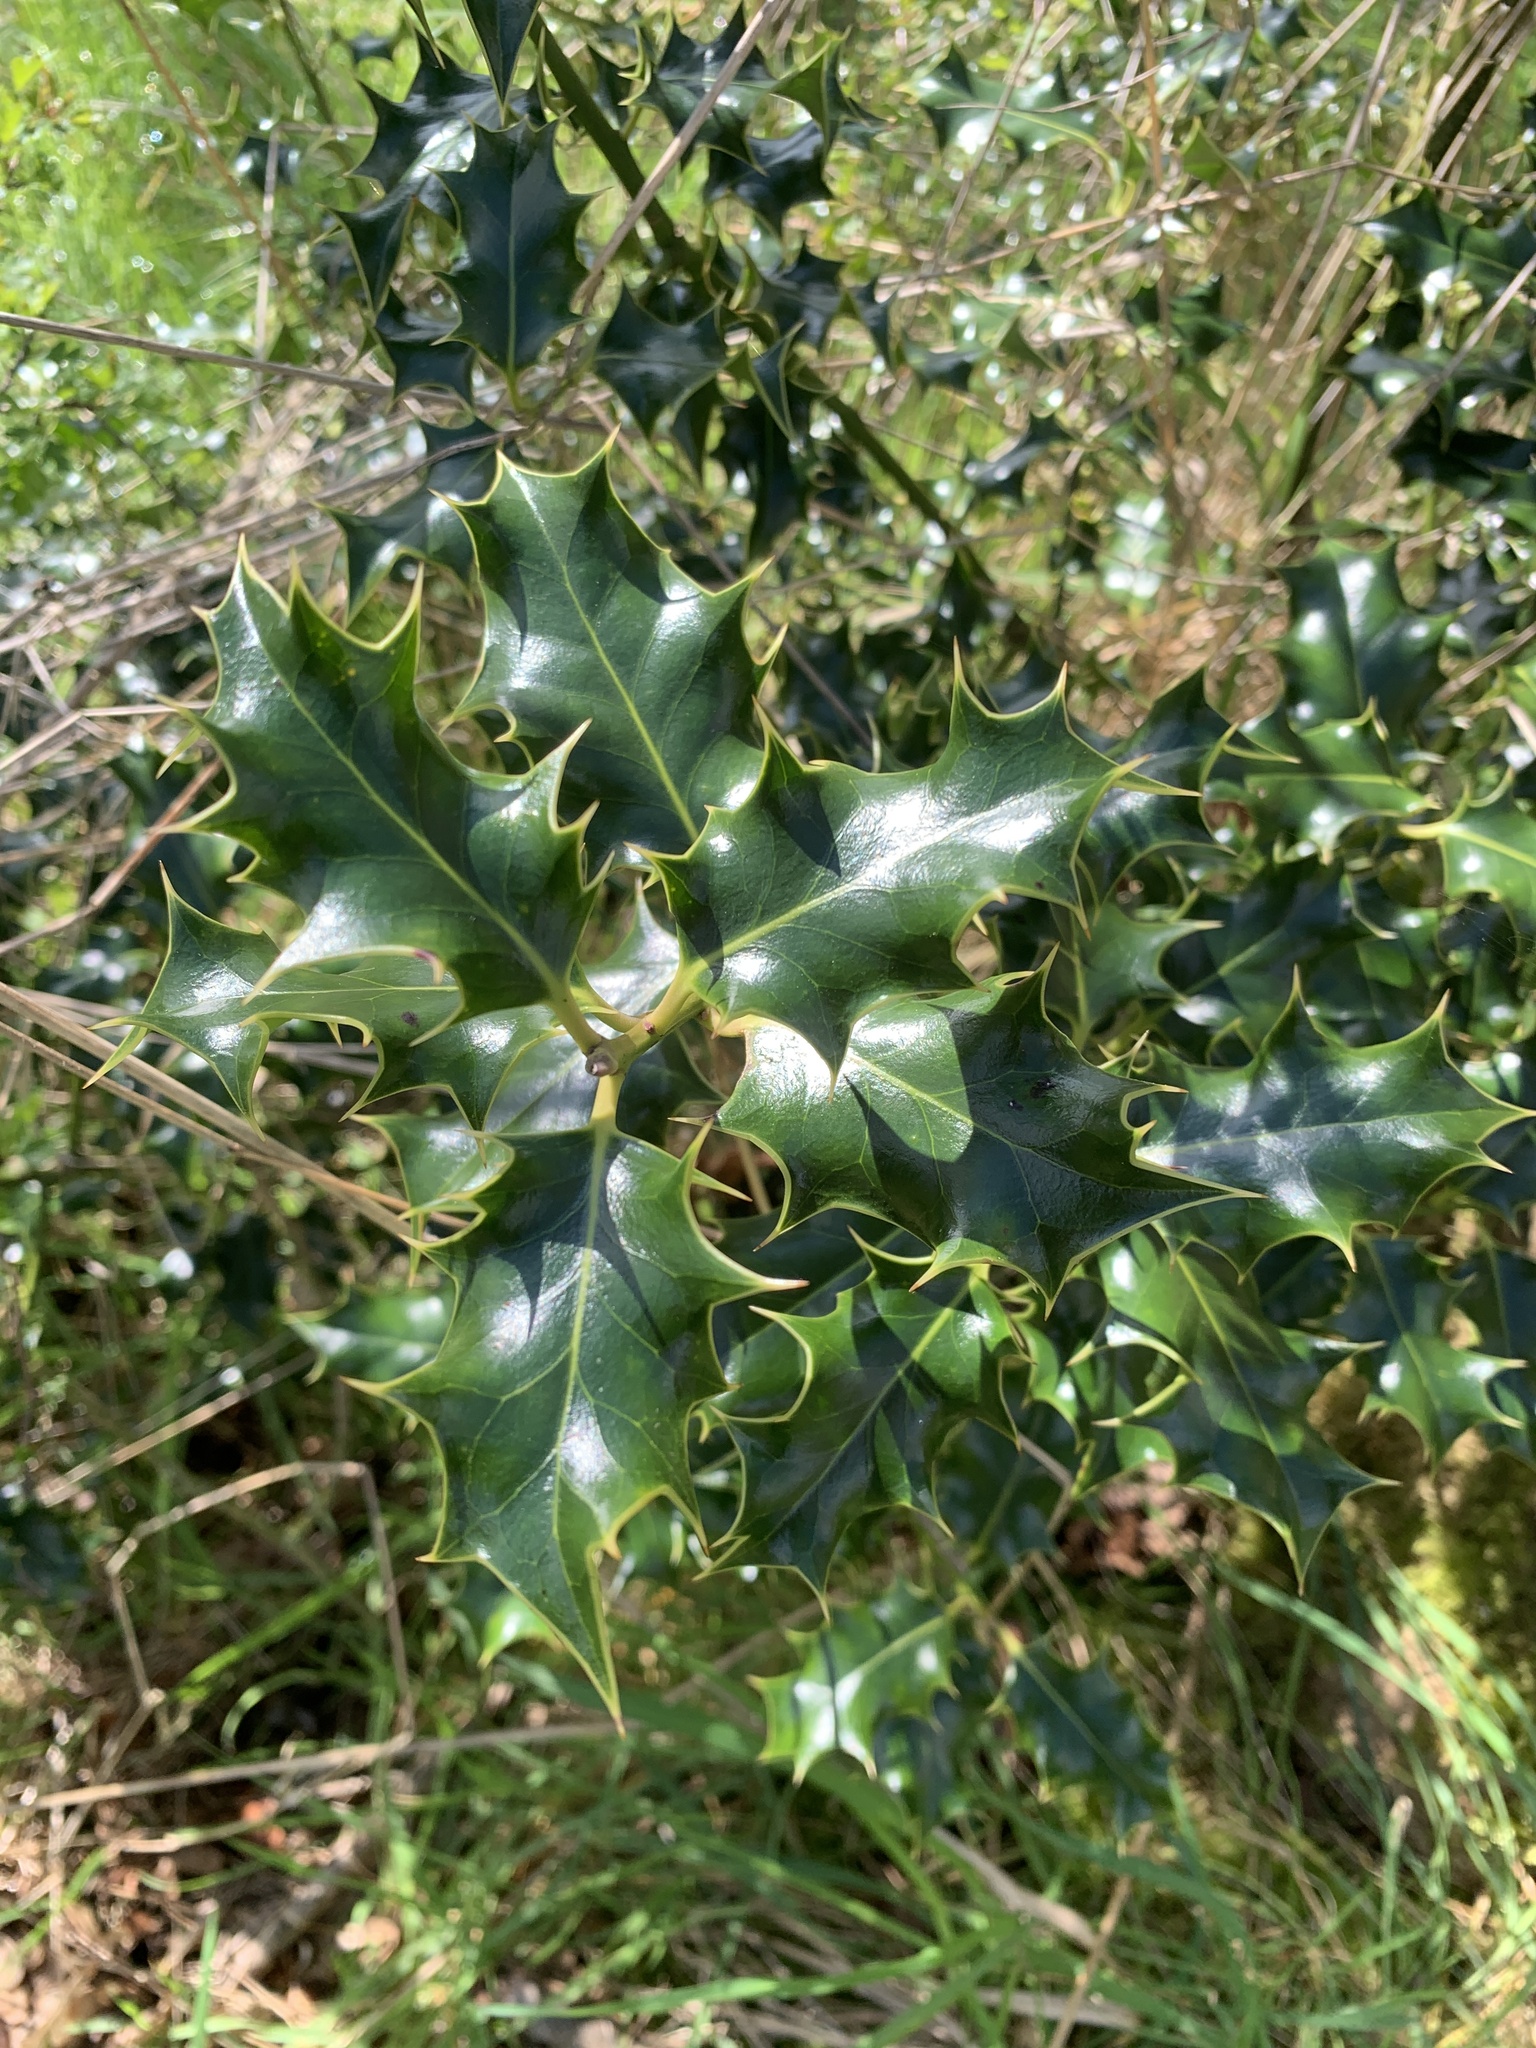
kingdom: Plantae
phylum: Tracheophyta
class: Magnoliopsida
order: Aquifoliales
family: Aquifoliaceae
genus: Ilex
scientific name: Ilex aquifolium
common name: English holly
